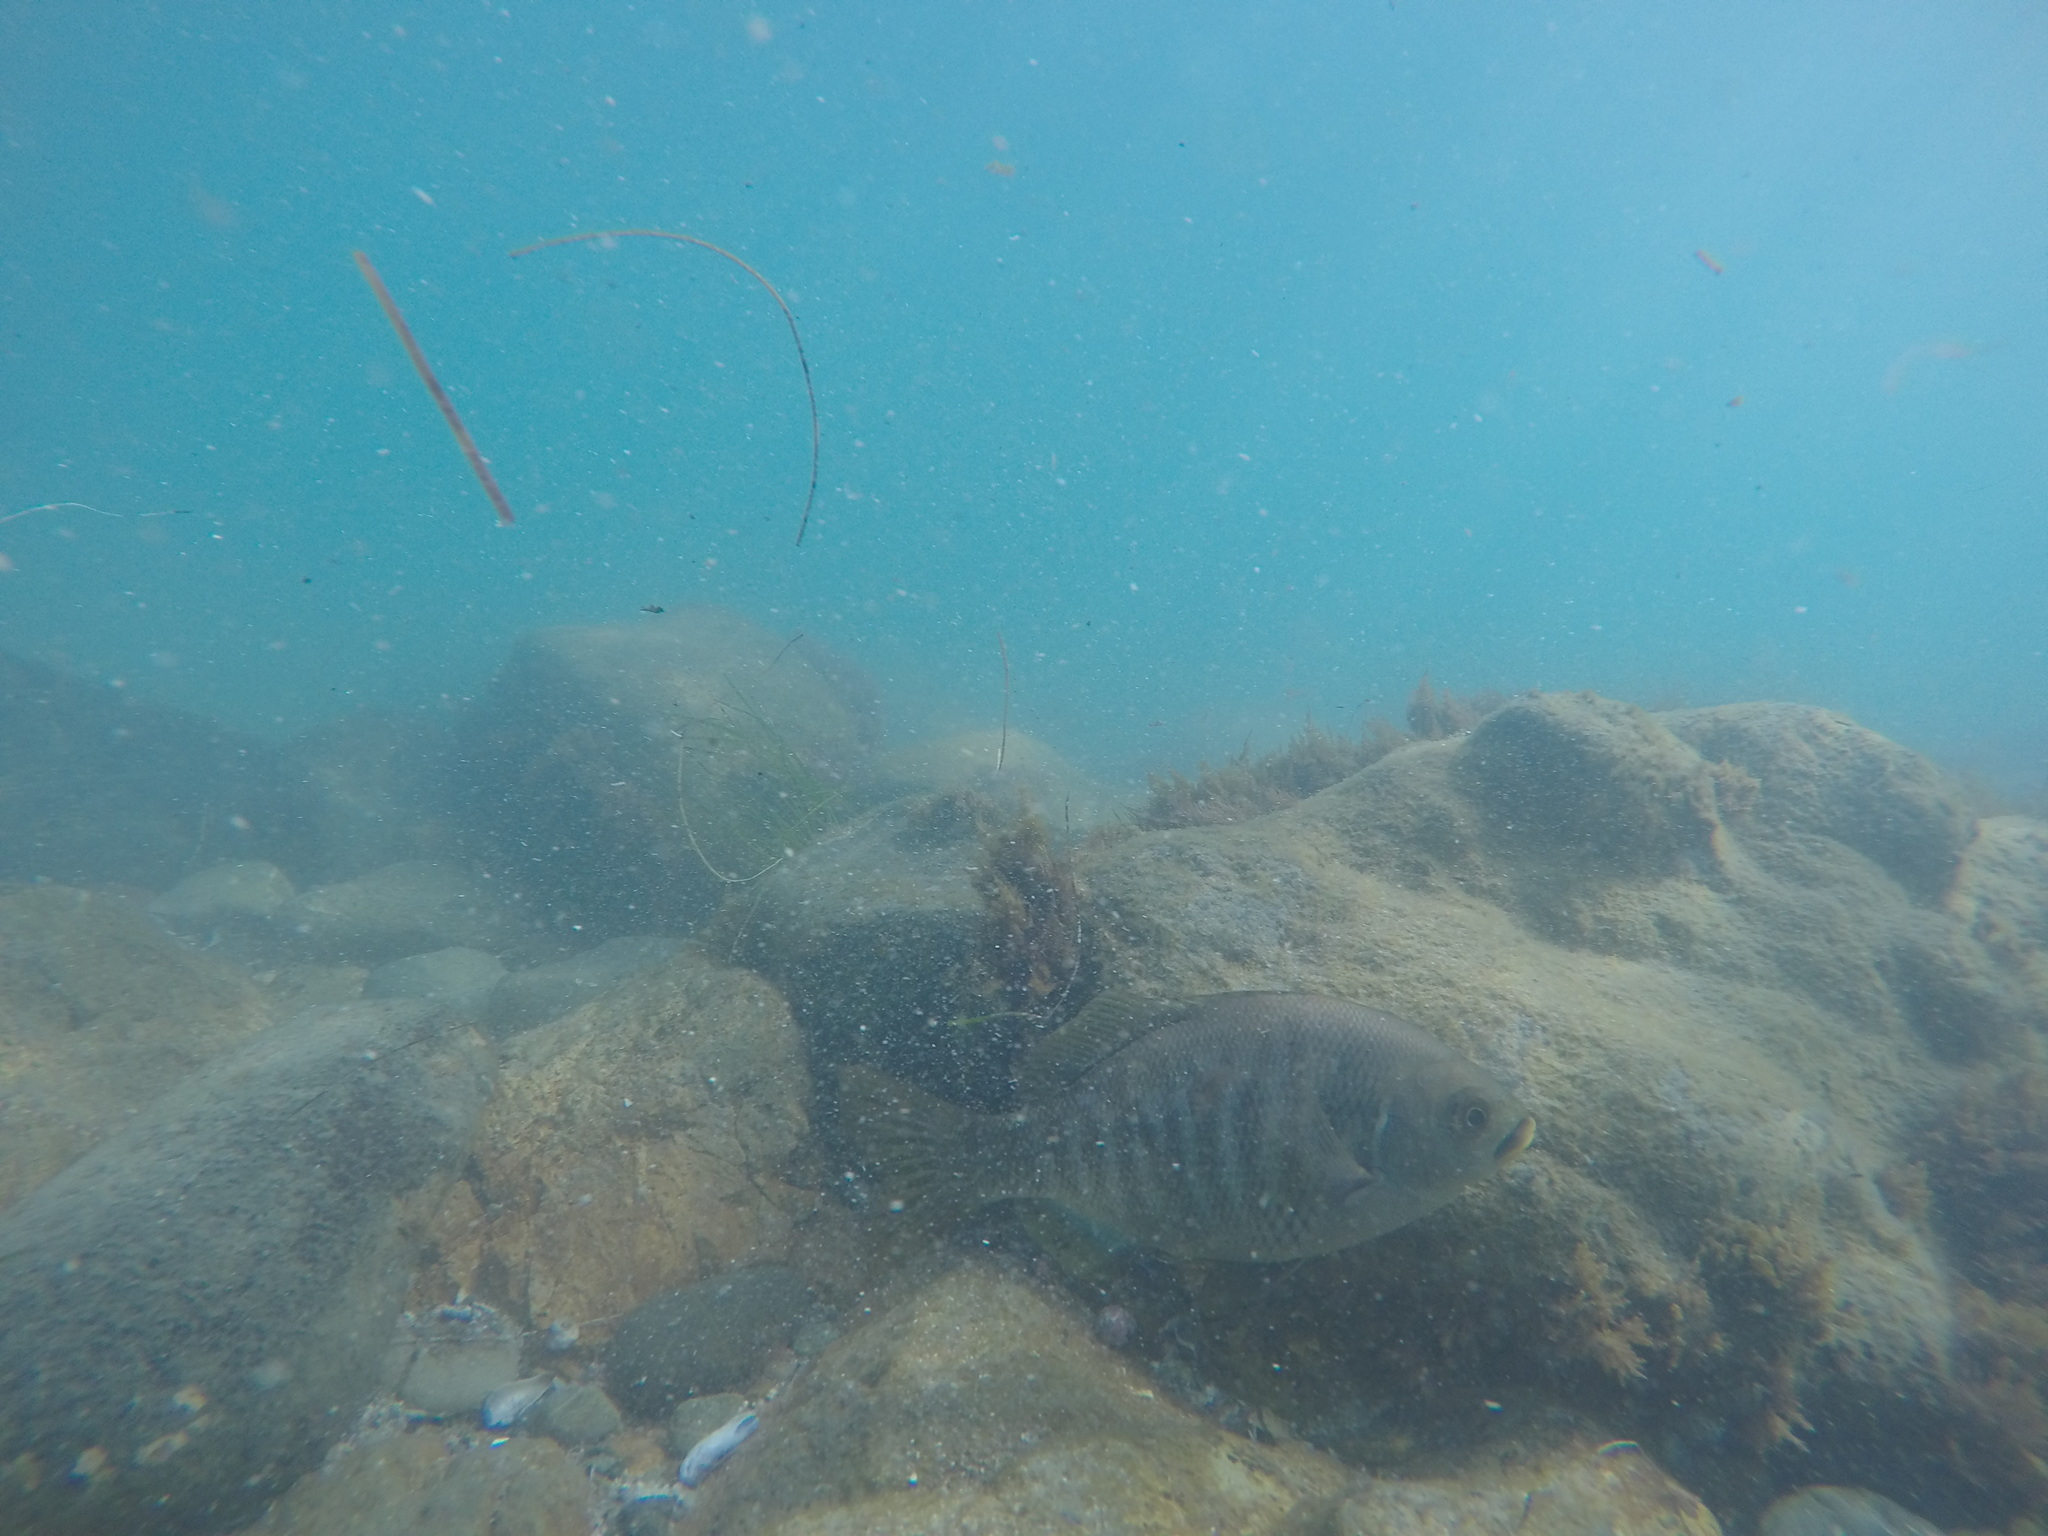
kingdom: Animalia
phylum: Chordata
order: Perciformes
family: Embiotocidae
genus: Embiotoca
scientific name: Embiotoca jacksoni
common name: Black perch
